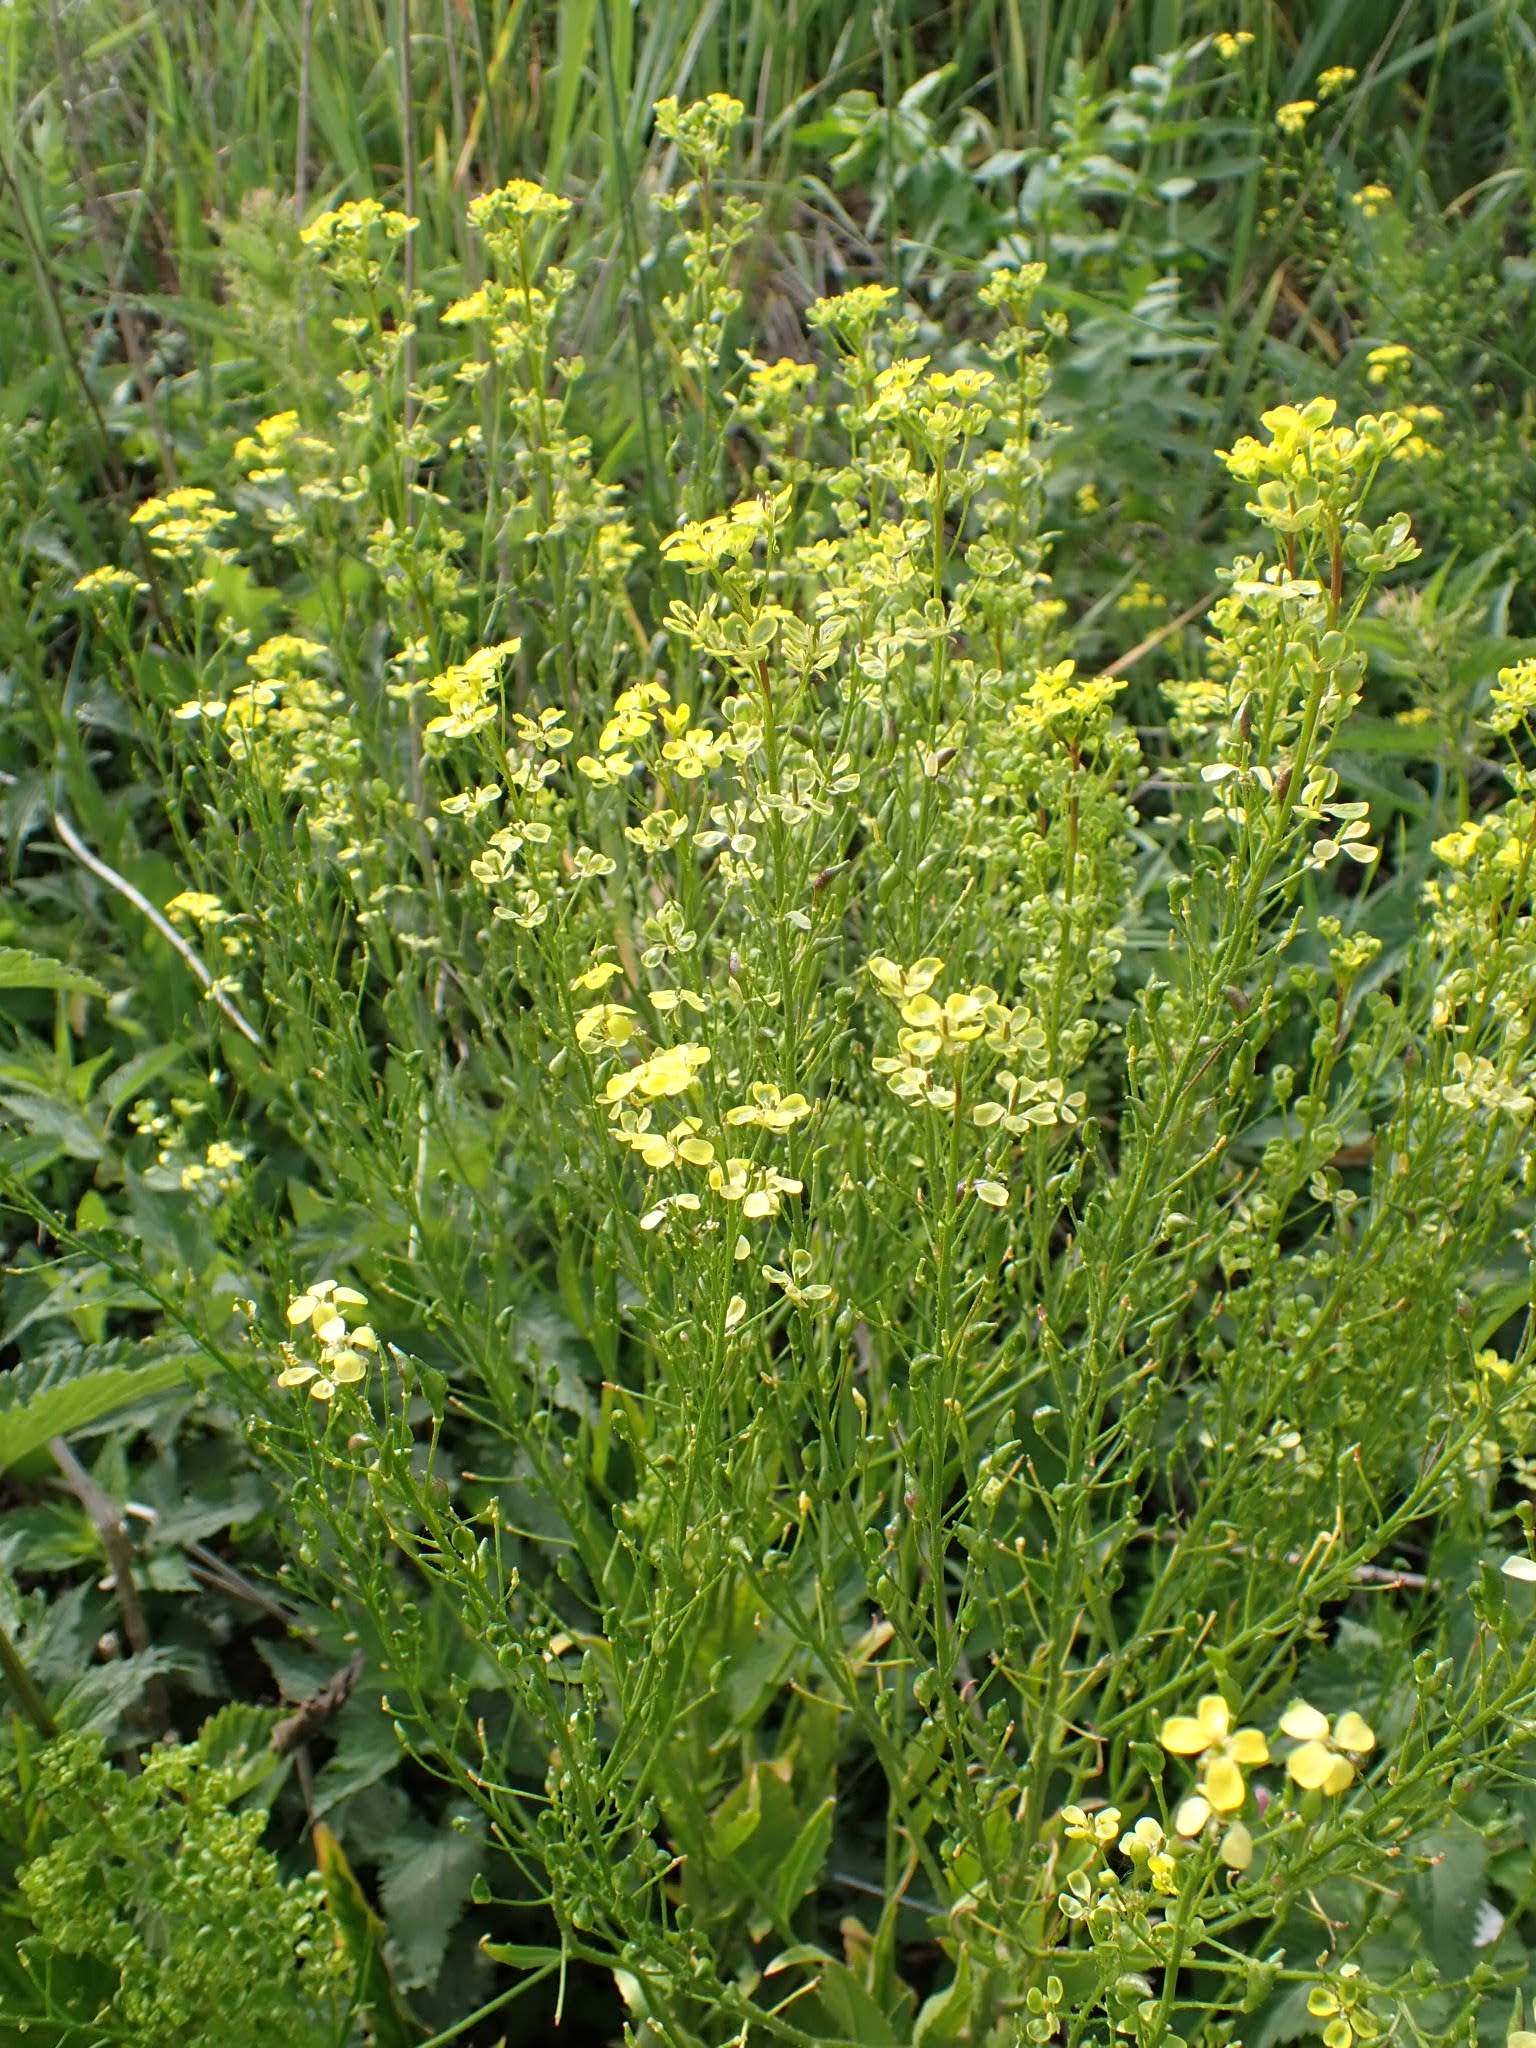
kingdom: Plantae
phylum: Tracheophyta
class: Magnoliopsida
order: Brassicales
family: Brassicaceae
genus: Bunias
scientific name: Bunias orientalis
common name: Warty-cabbage
